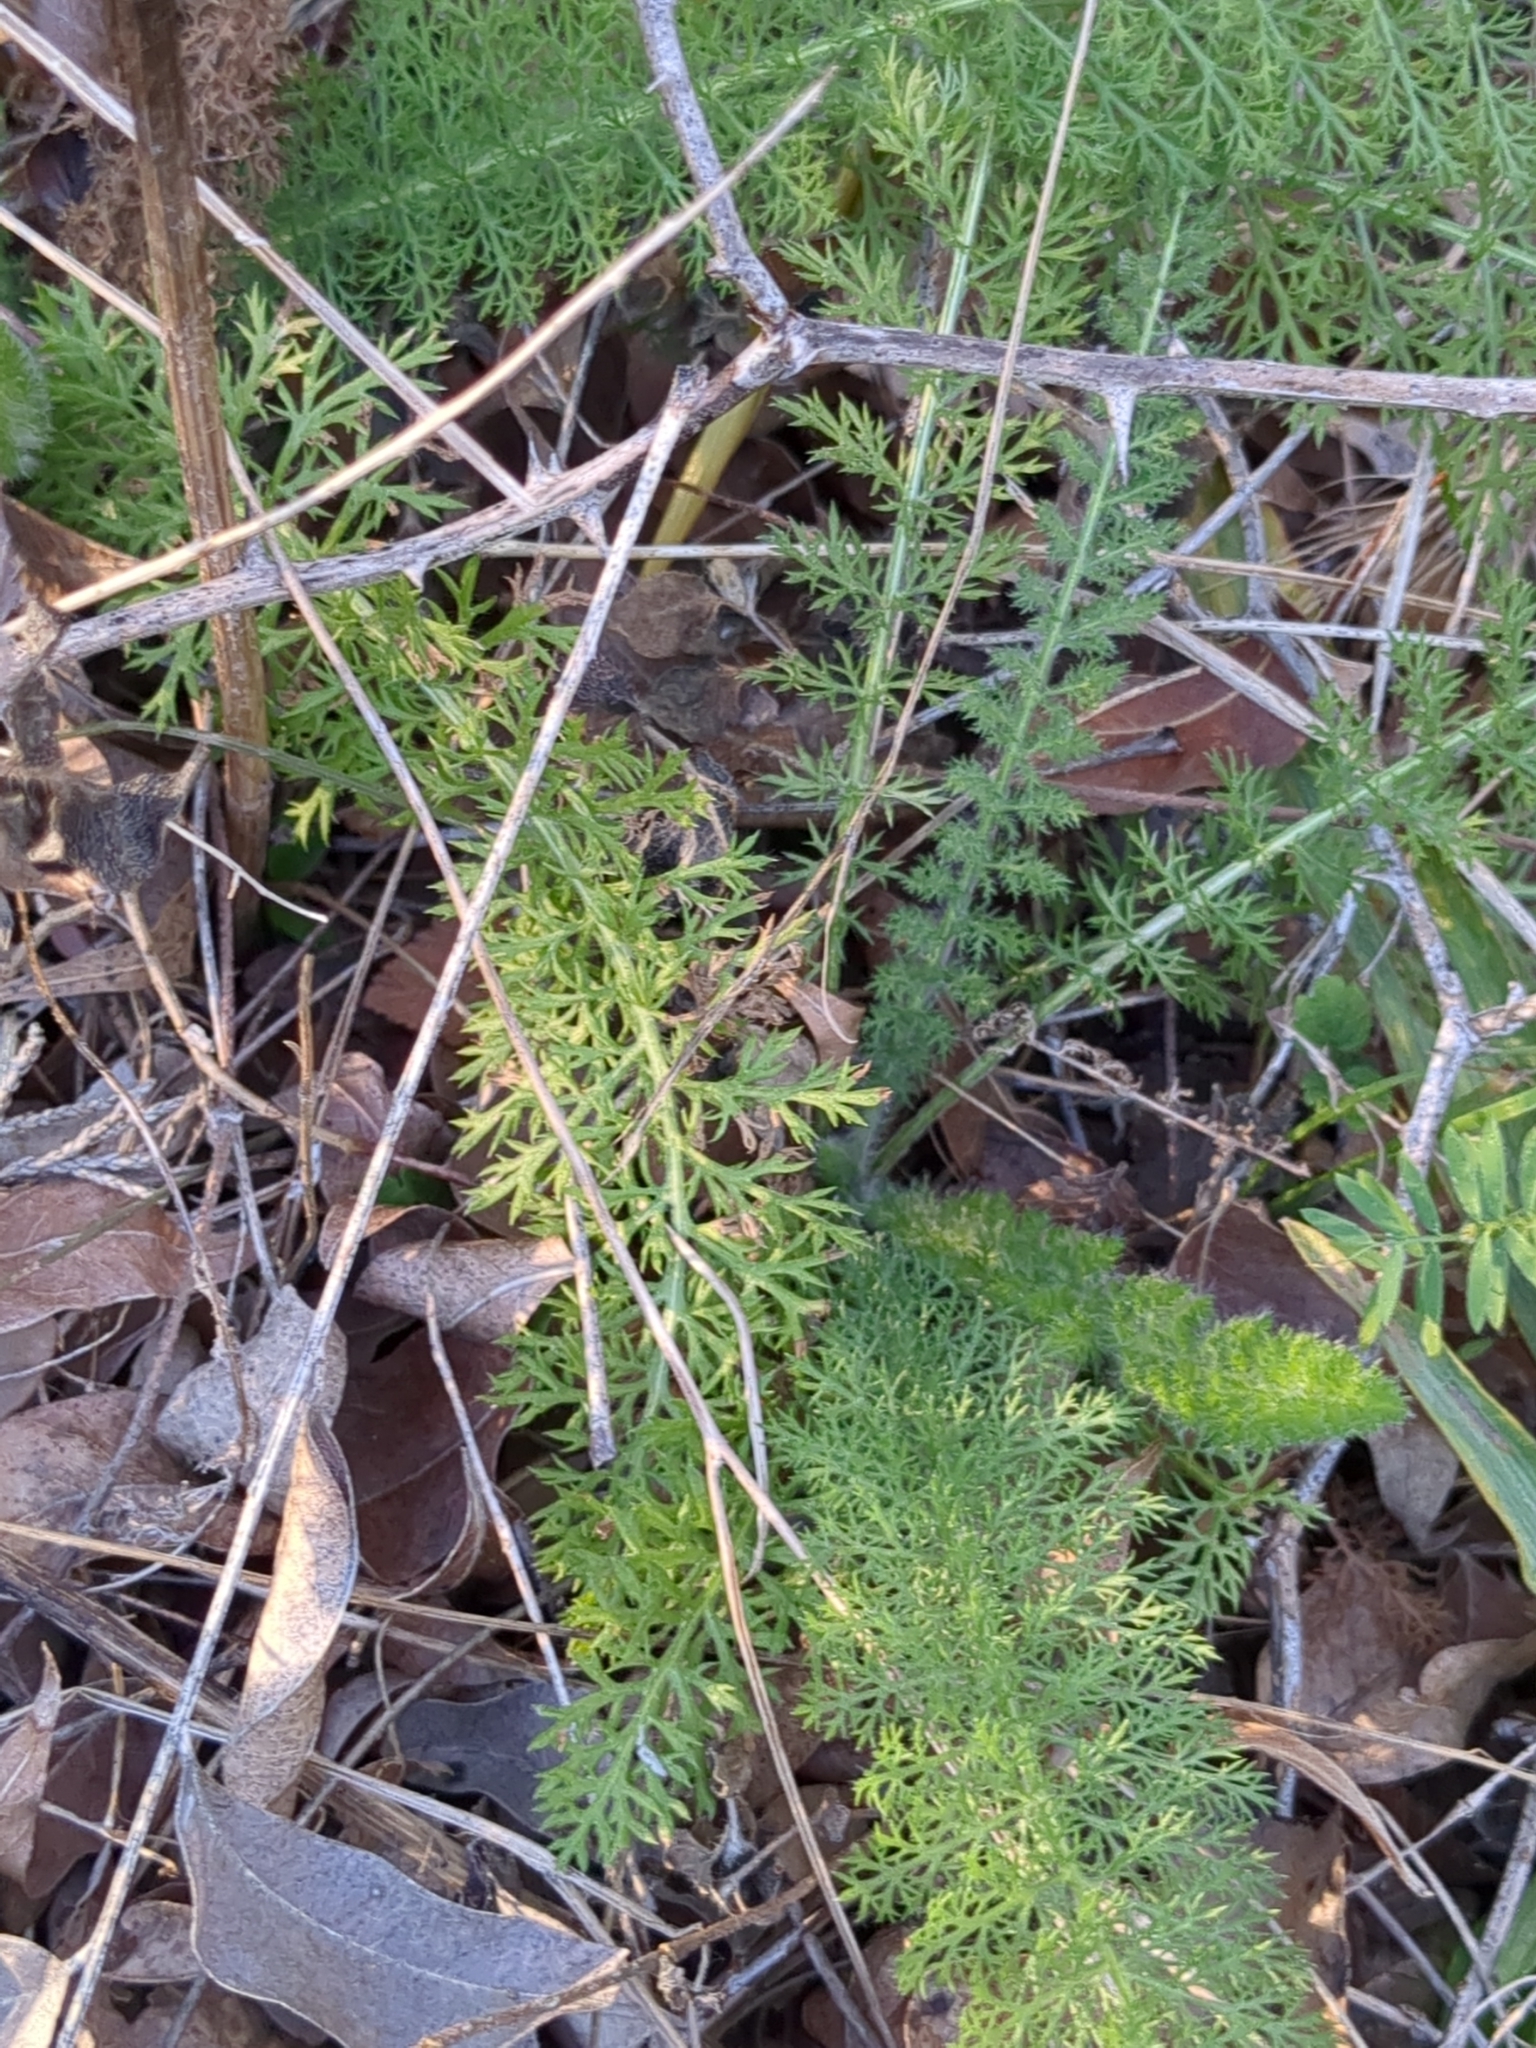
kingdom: Plantae
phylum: Tracheophyta
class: Magnoliopsida
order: Asterales
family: Asteraceae
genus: Achillea
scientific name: Achillea millefolium
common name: Yarrow
